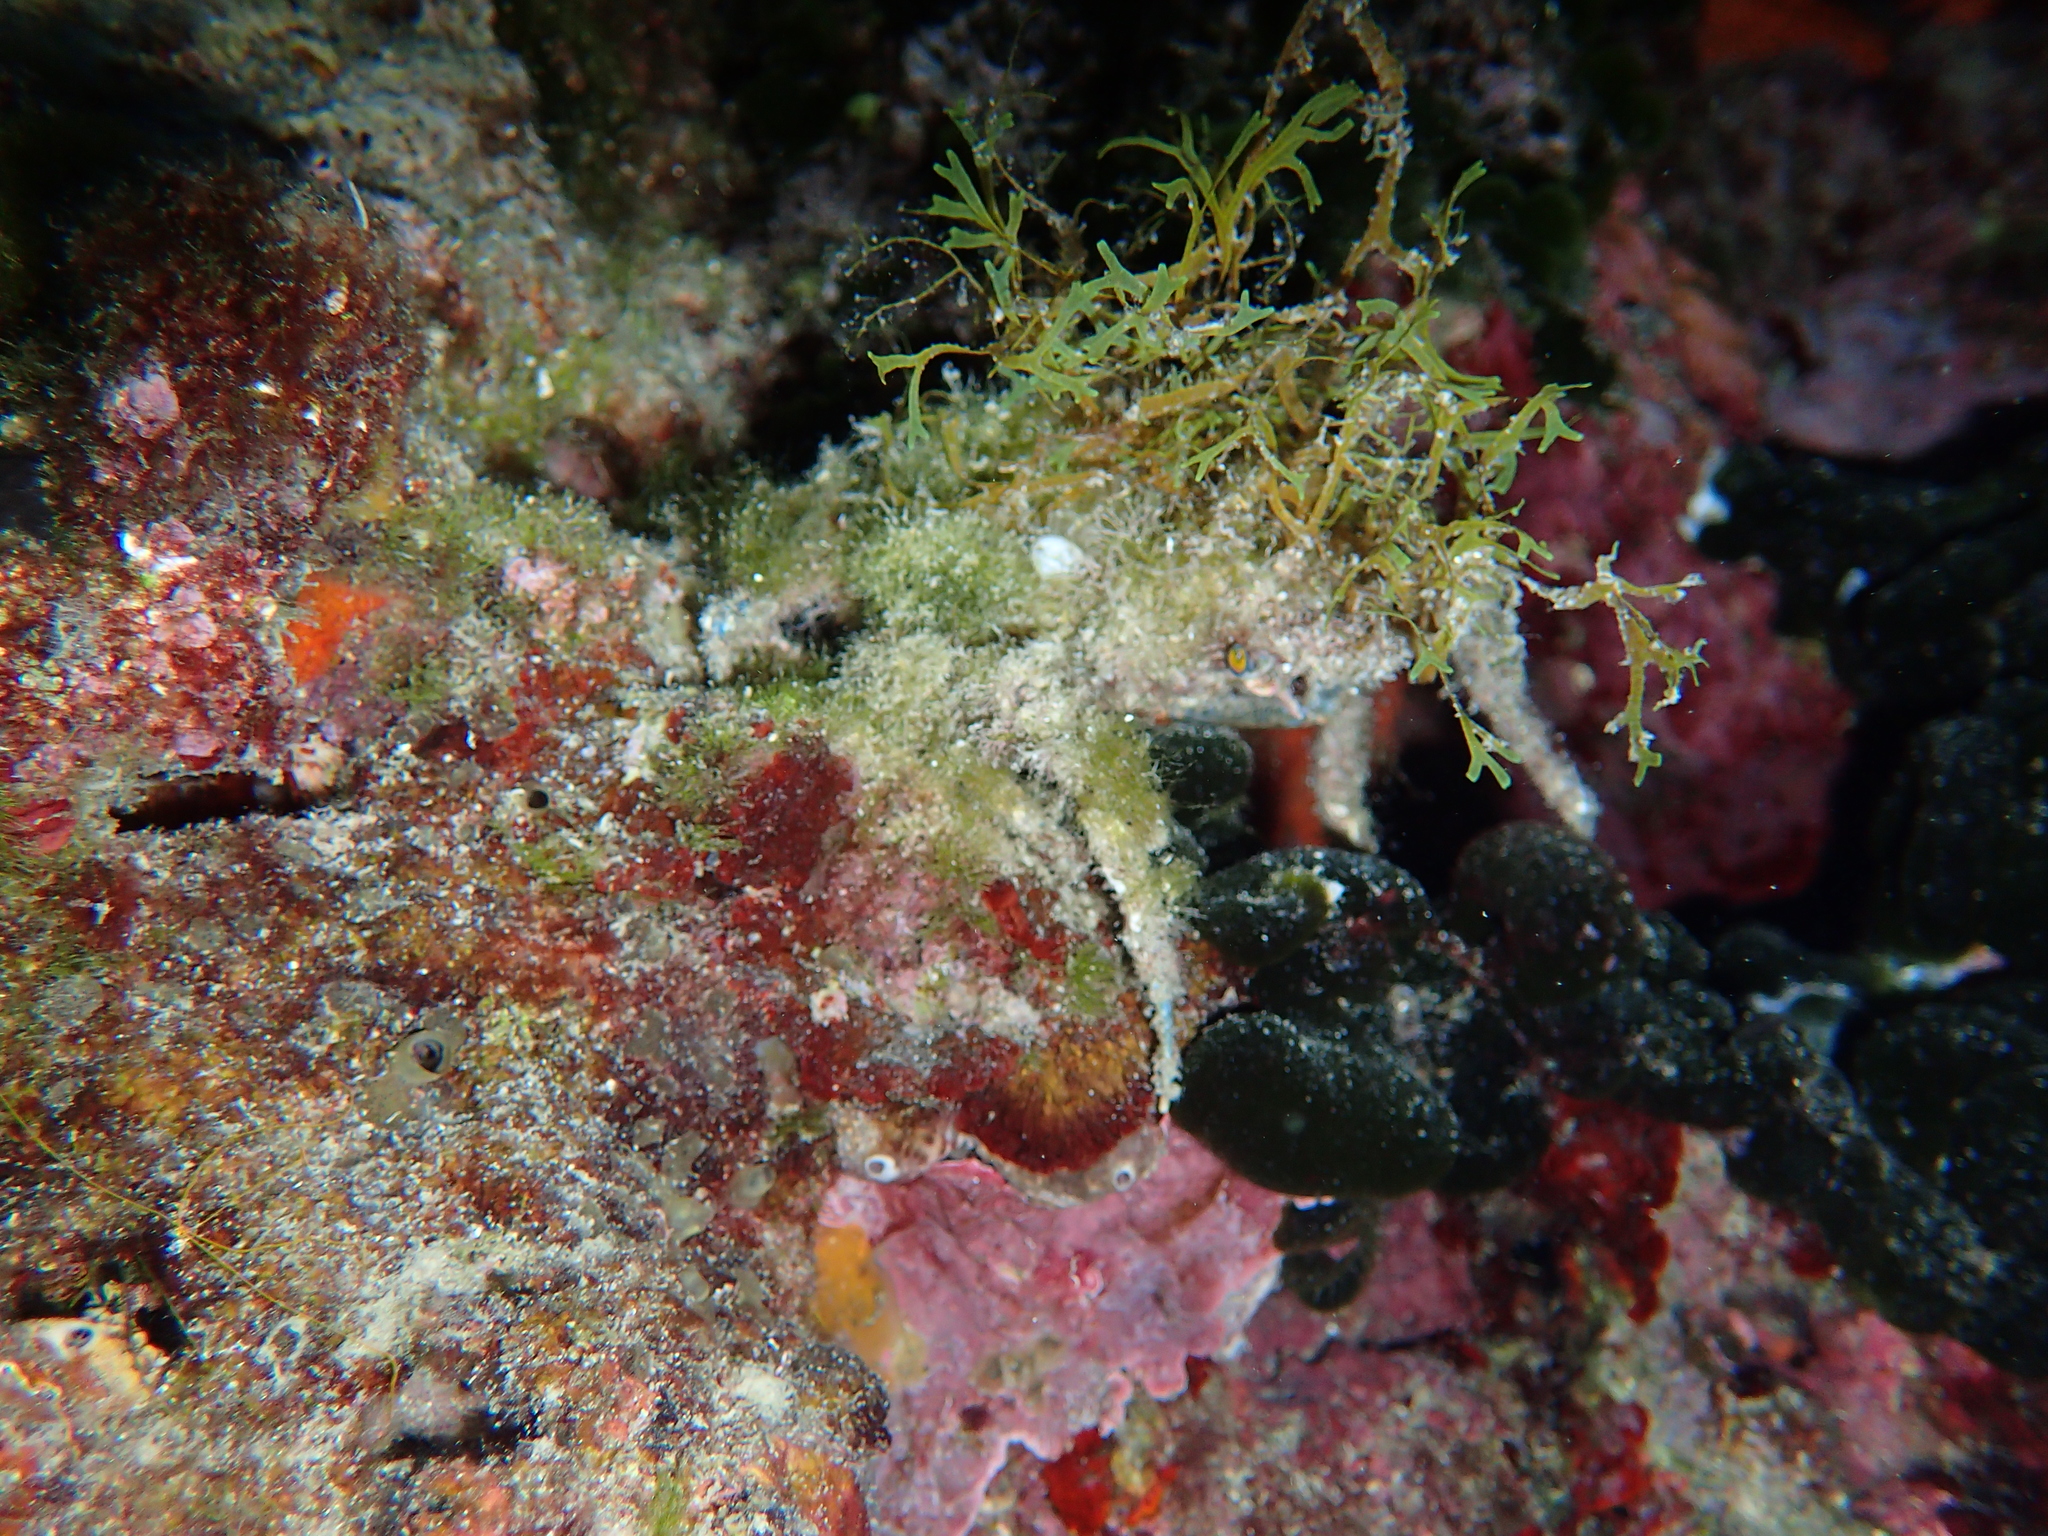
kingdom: Animalia
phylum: Arthropoda
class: Malacostraca
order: Decapoda
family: Majidae
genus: Maja
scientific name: Maja crispata
